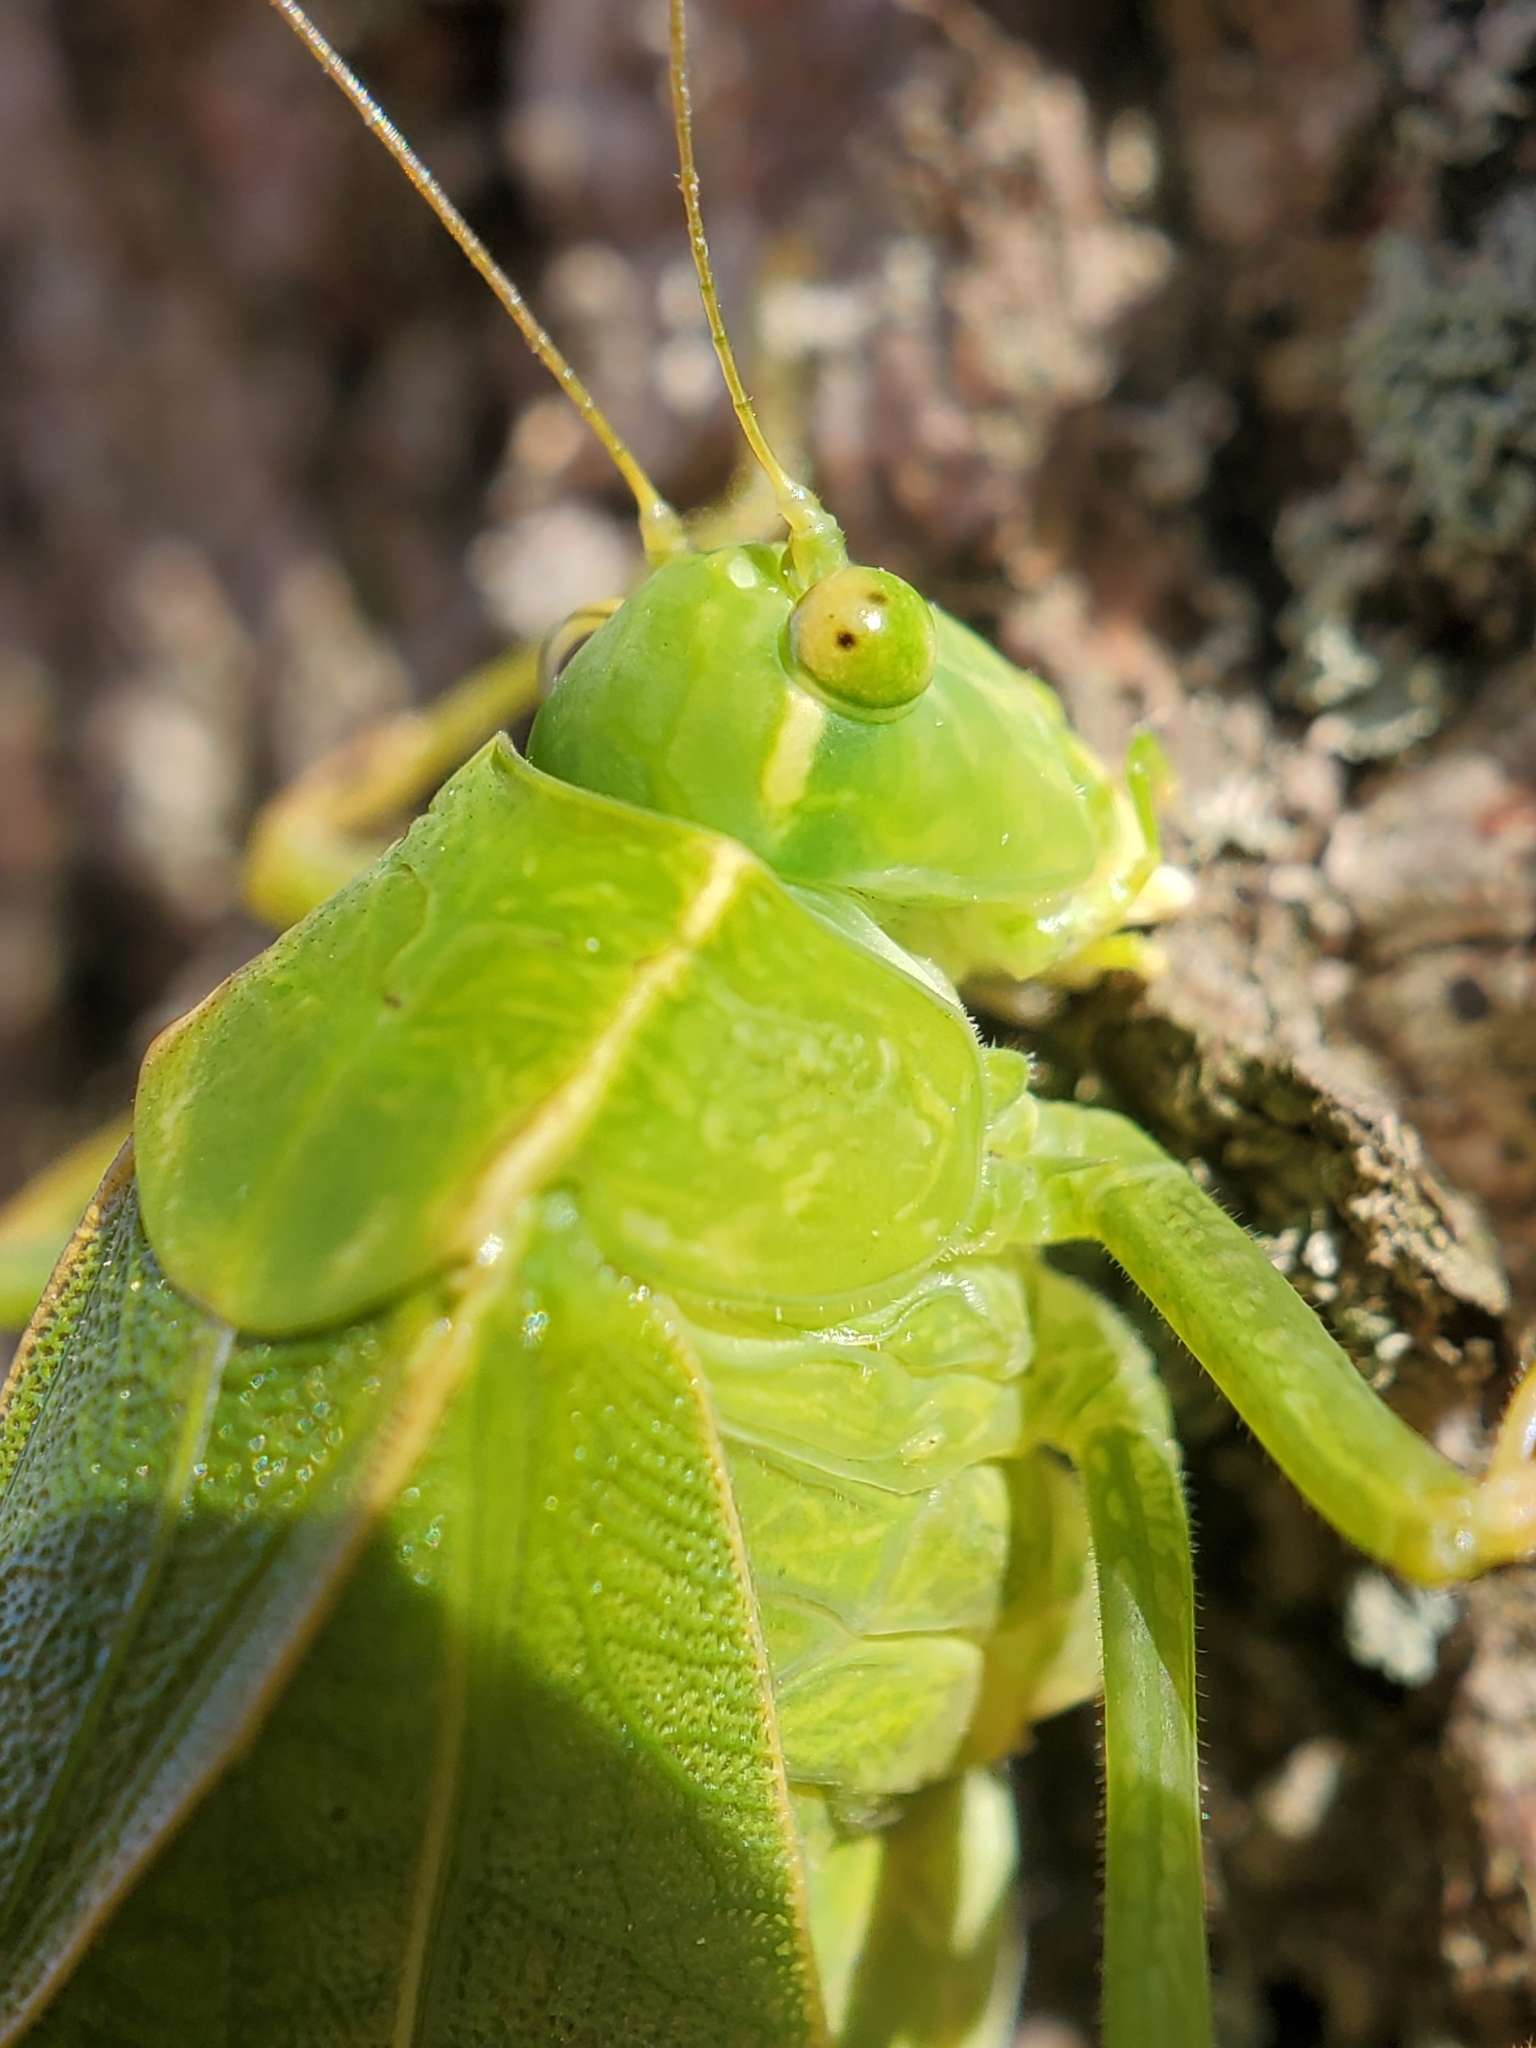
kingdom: Animalia
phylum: Arthropoda
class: Insecta
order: Orthoptera
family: Tettigoniidae
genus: Microcentrum
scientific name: Microcentrum retinerve
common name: Angular-winged katydid
